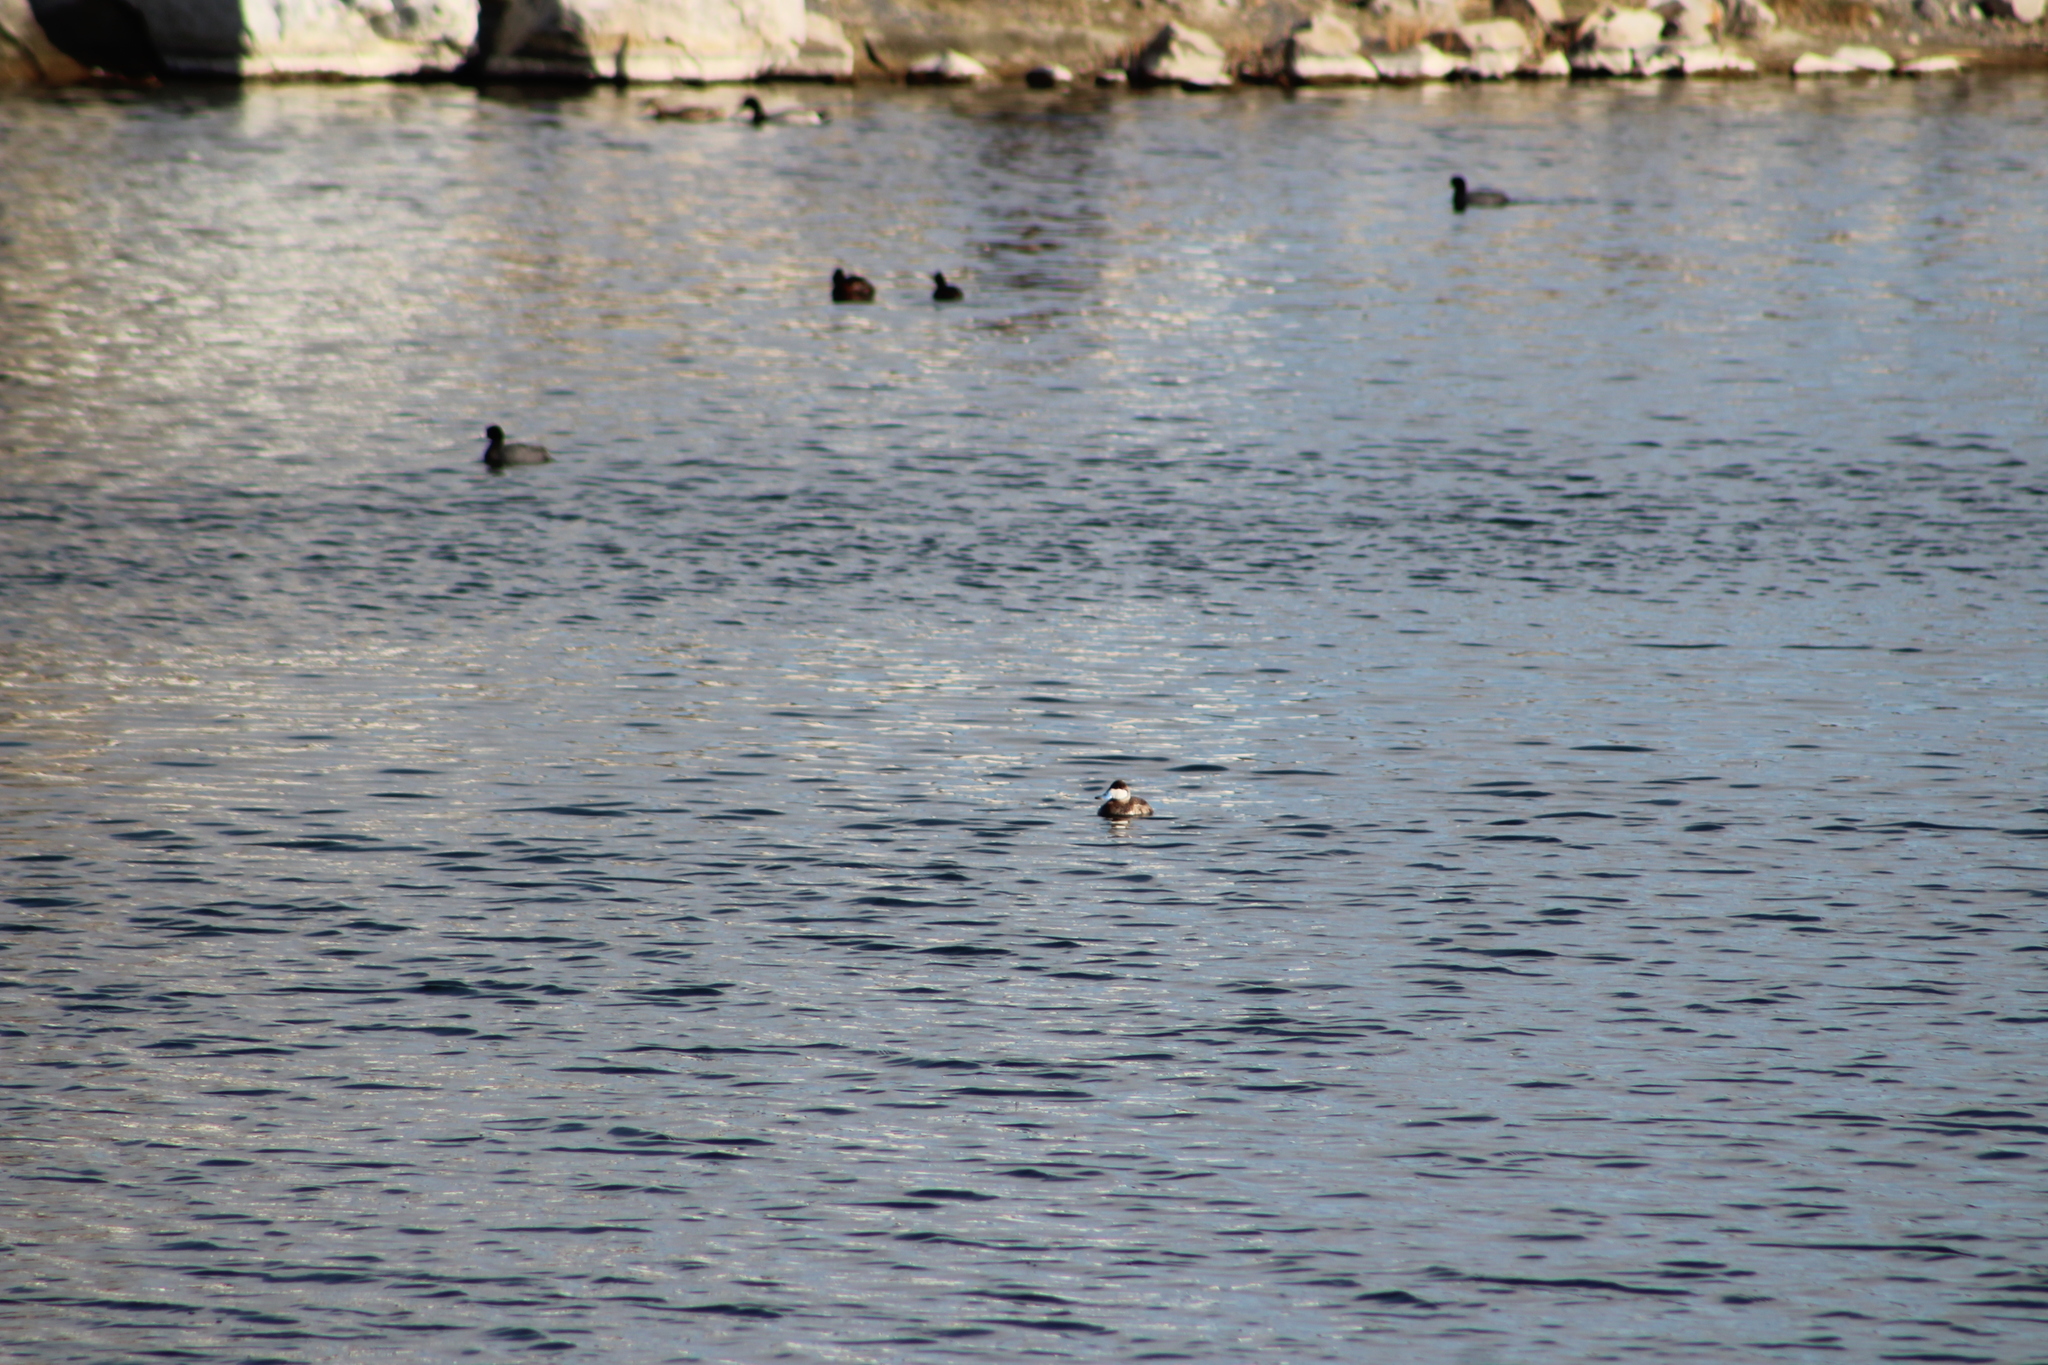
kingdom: Animalia
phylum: Chordata
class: Aves
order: Anseriformes
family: Anatidae
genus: Oxyura
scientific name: Oxyura jamaicensis
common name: Ruddy duck
